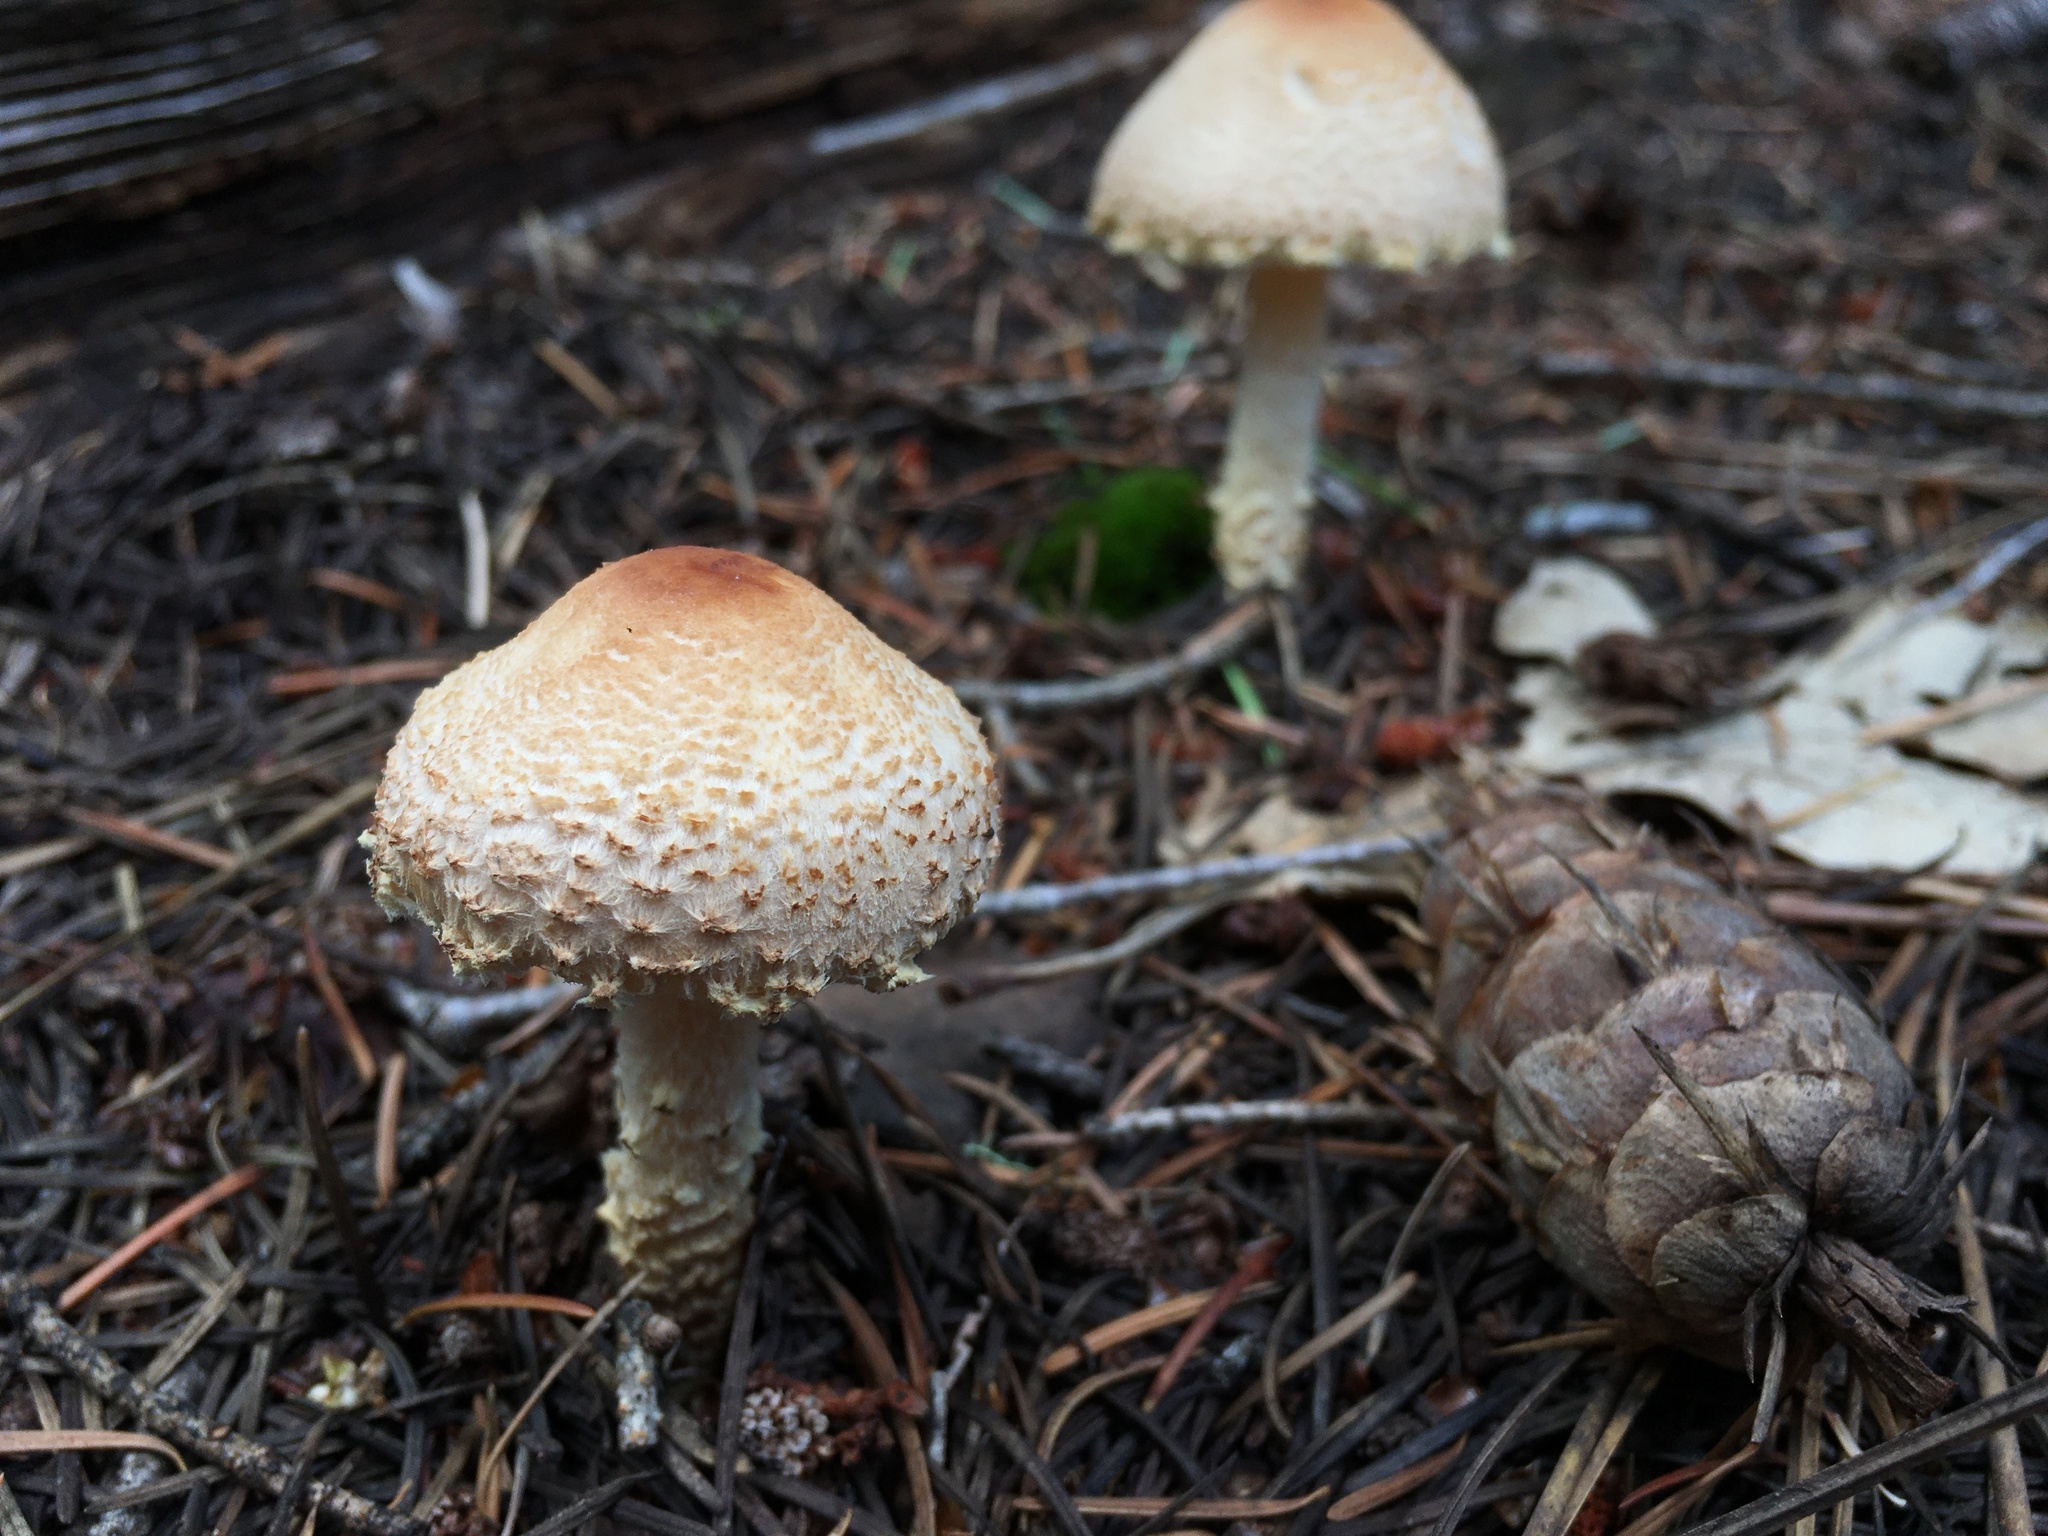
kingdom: Fungi
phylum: Basidiomycota
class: Agaricomycetes
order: Agaricales
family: Agaricaceae
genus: Lepiota
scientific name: Lepiota cristata
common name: Stinking dapperling
